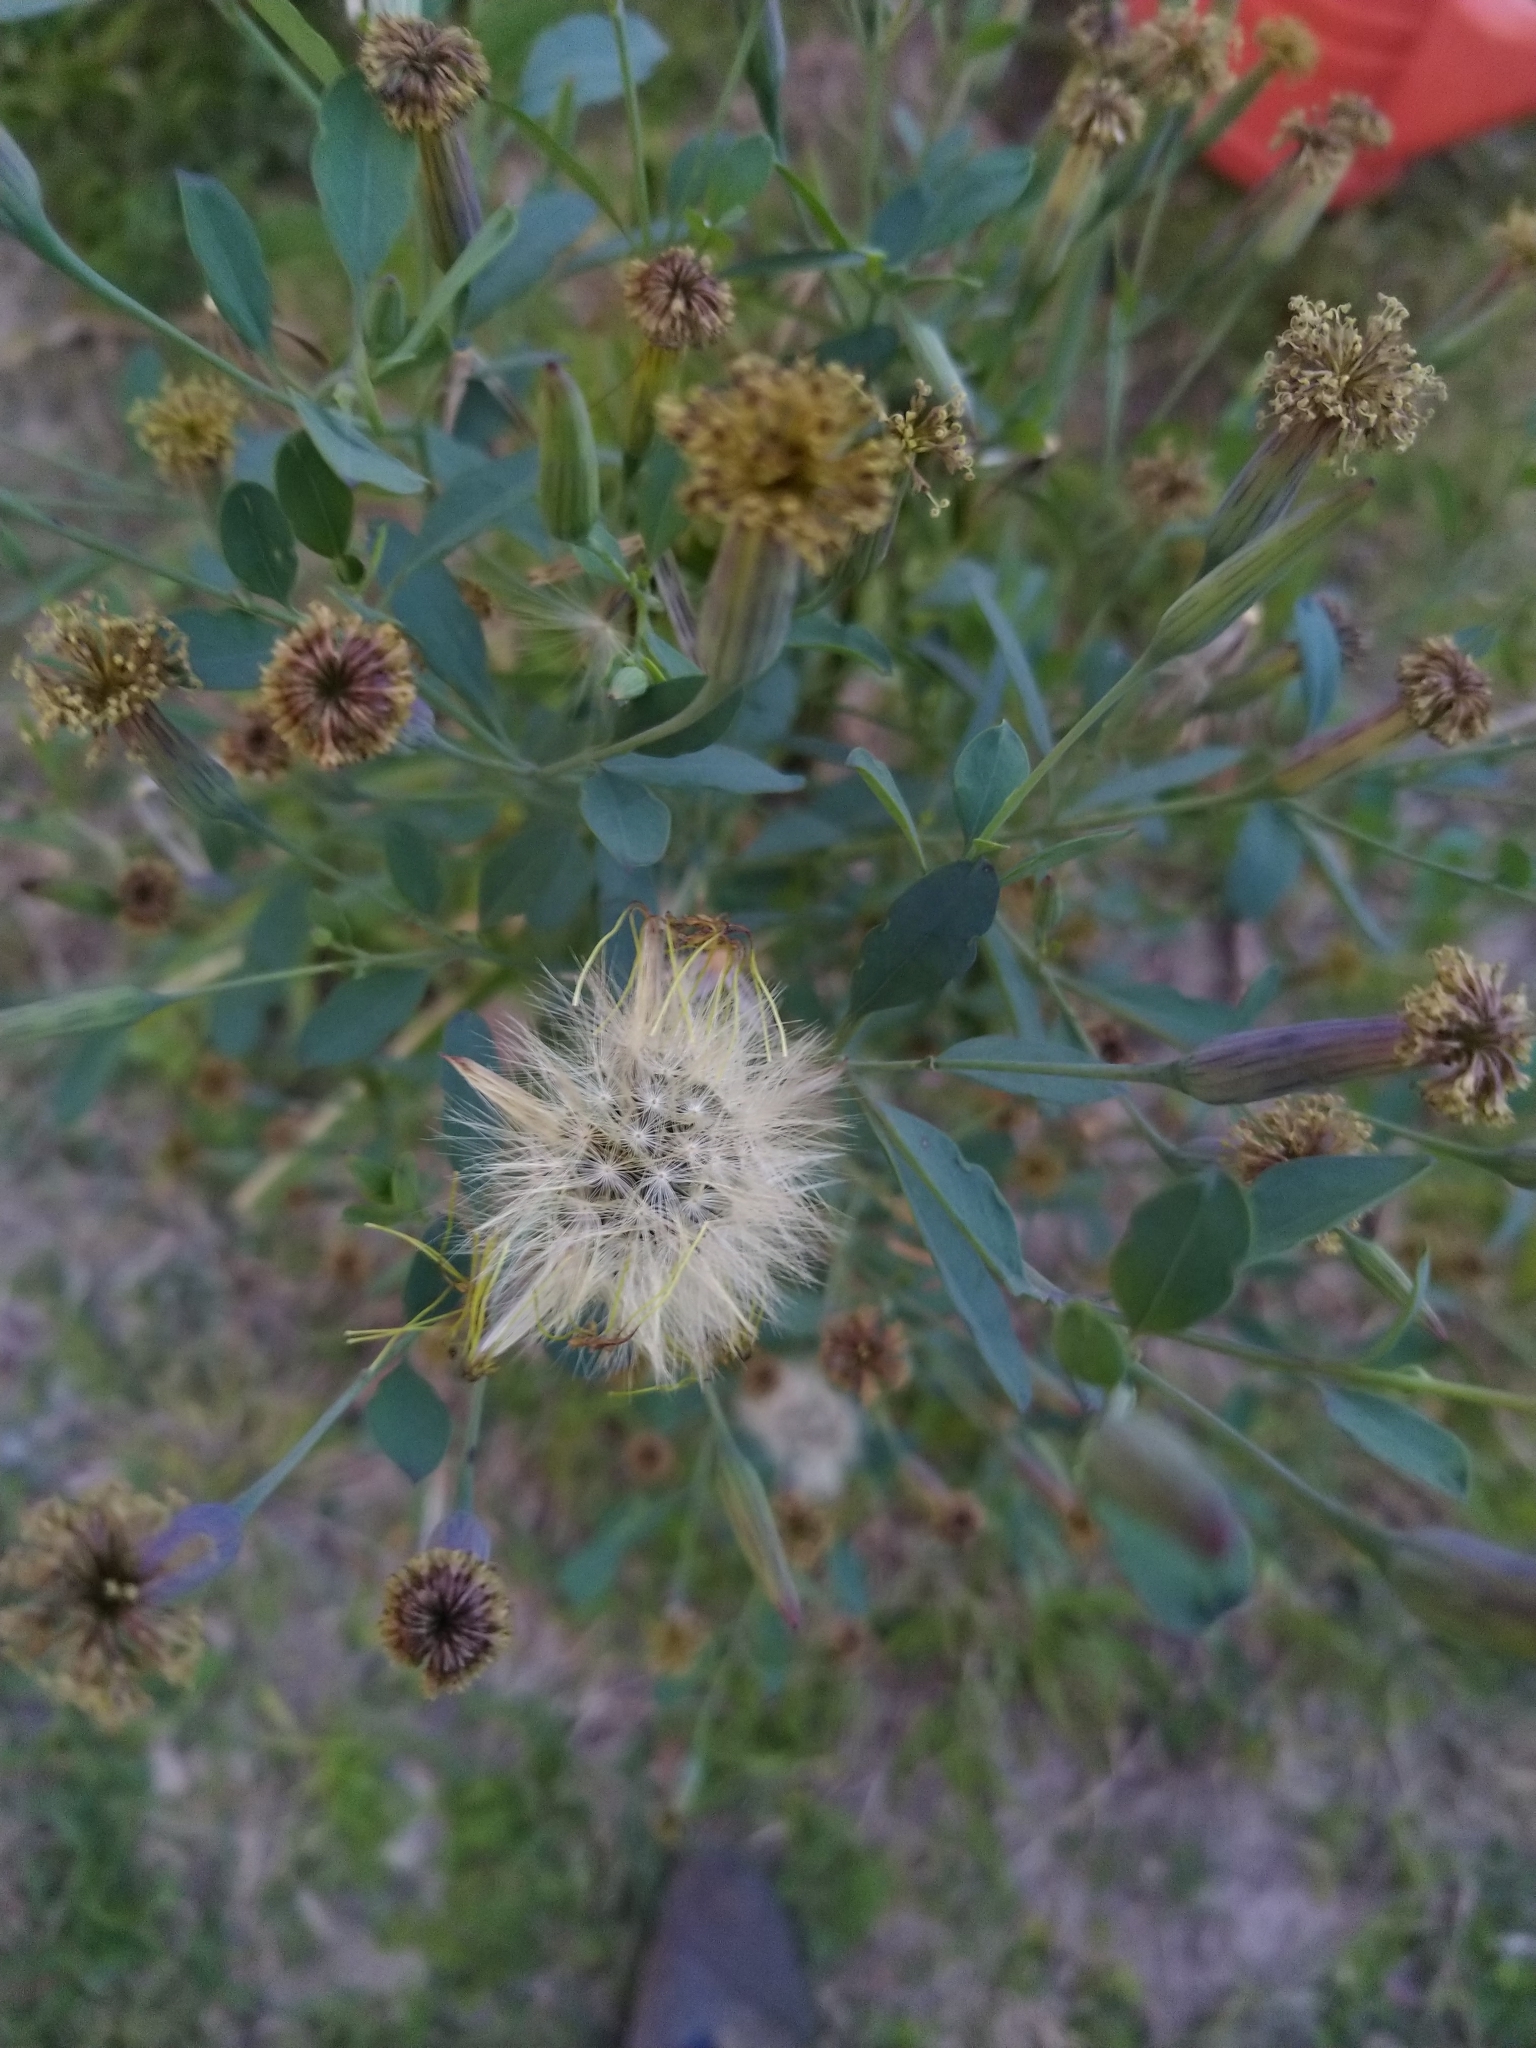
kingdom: Plantae
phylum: Tracheophyta
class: Magnoliopsida
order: Asterales
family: Asteraceae
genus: Porophyllum
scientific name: Porophyllum ruderale
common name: Yerba porosa
